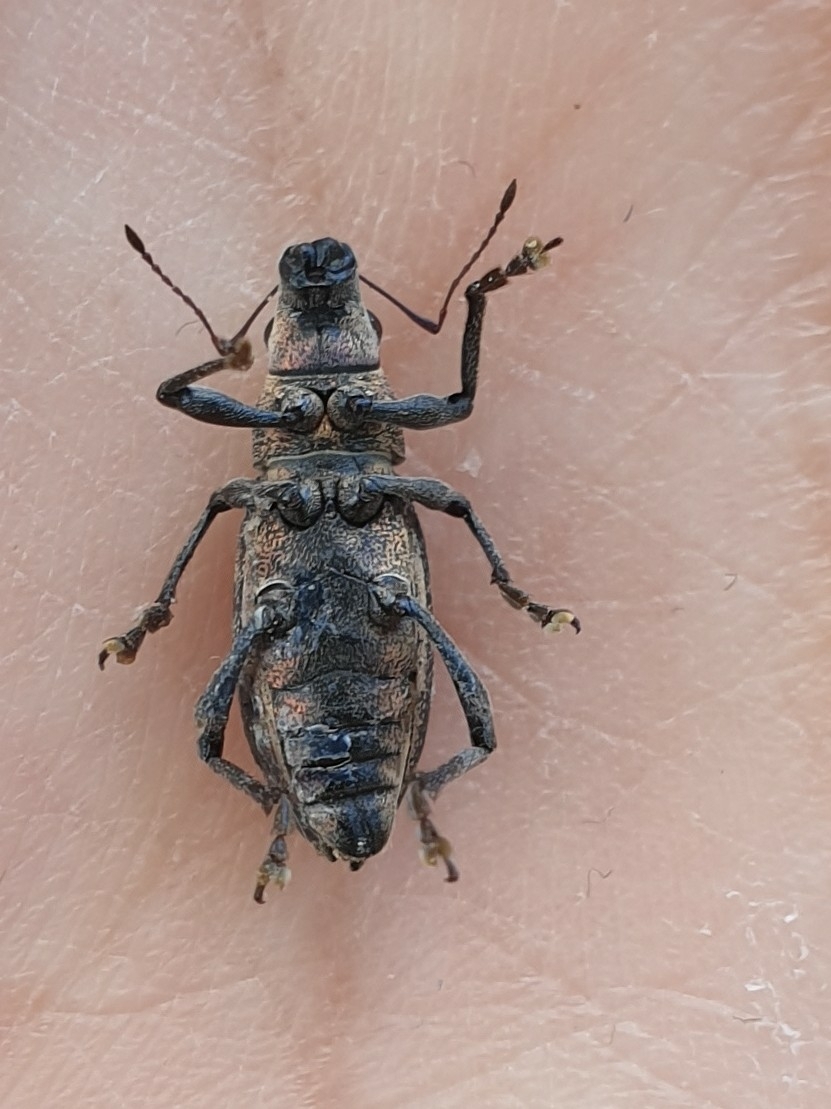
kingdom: Animalia
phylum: Arthropoda
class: Insecta
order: Coleoptera
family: Curculionidae
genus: Brachyderes
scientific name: Brachyderes lusitanicus
